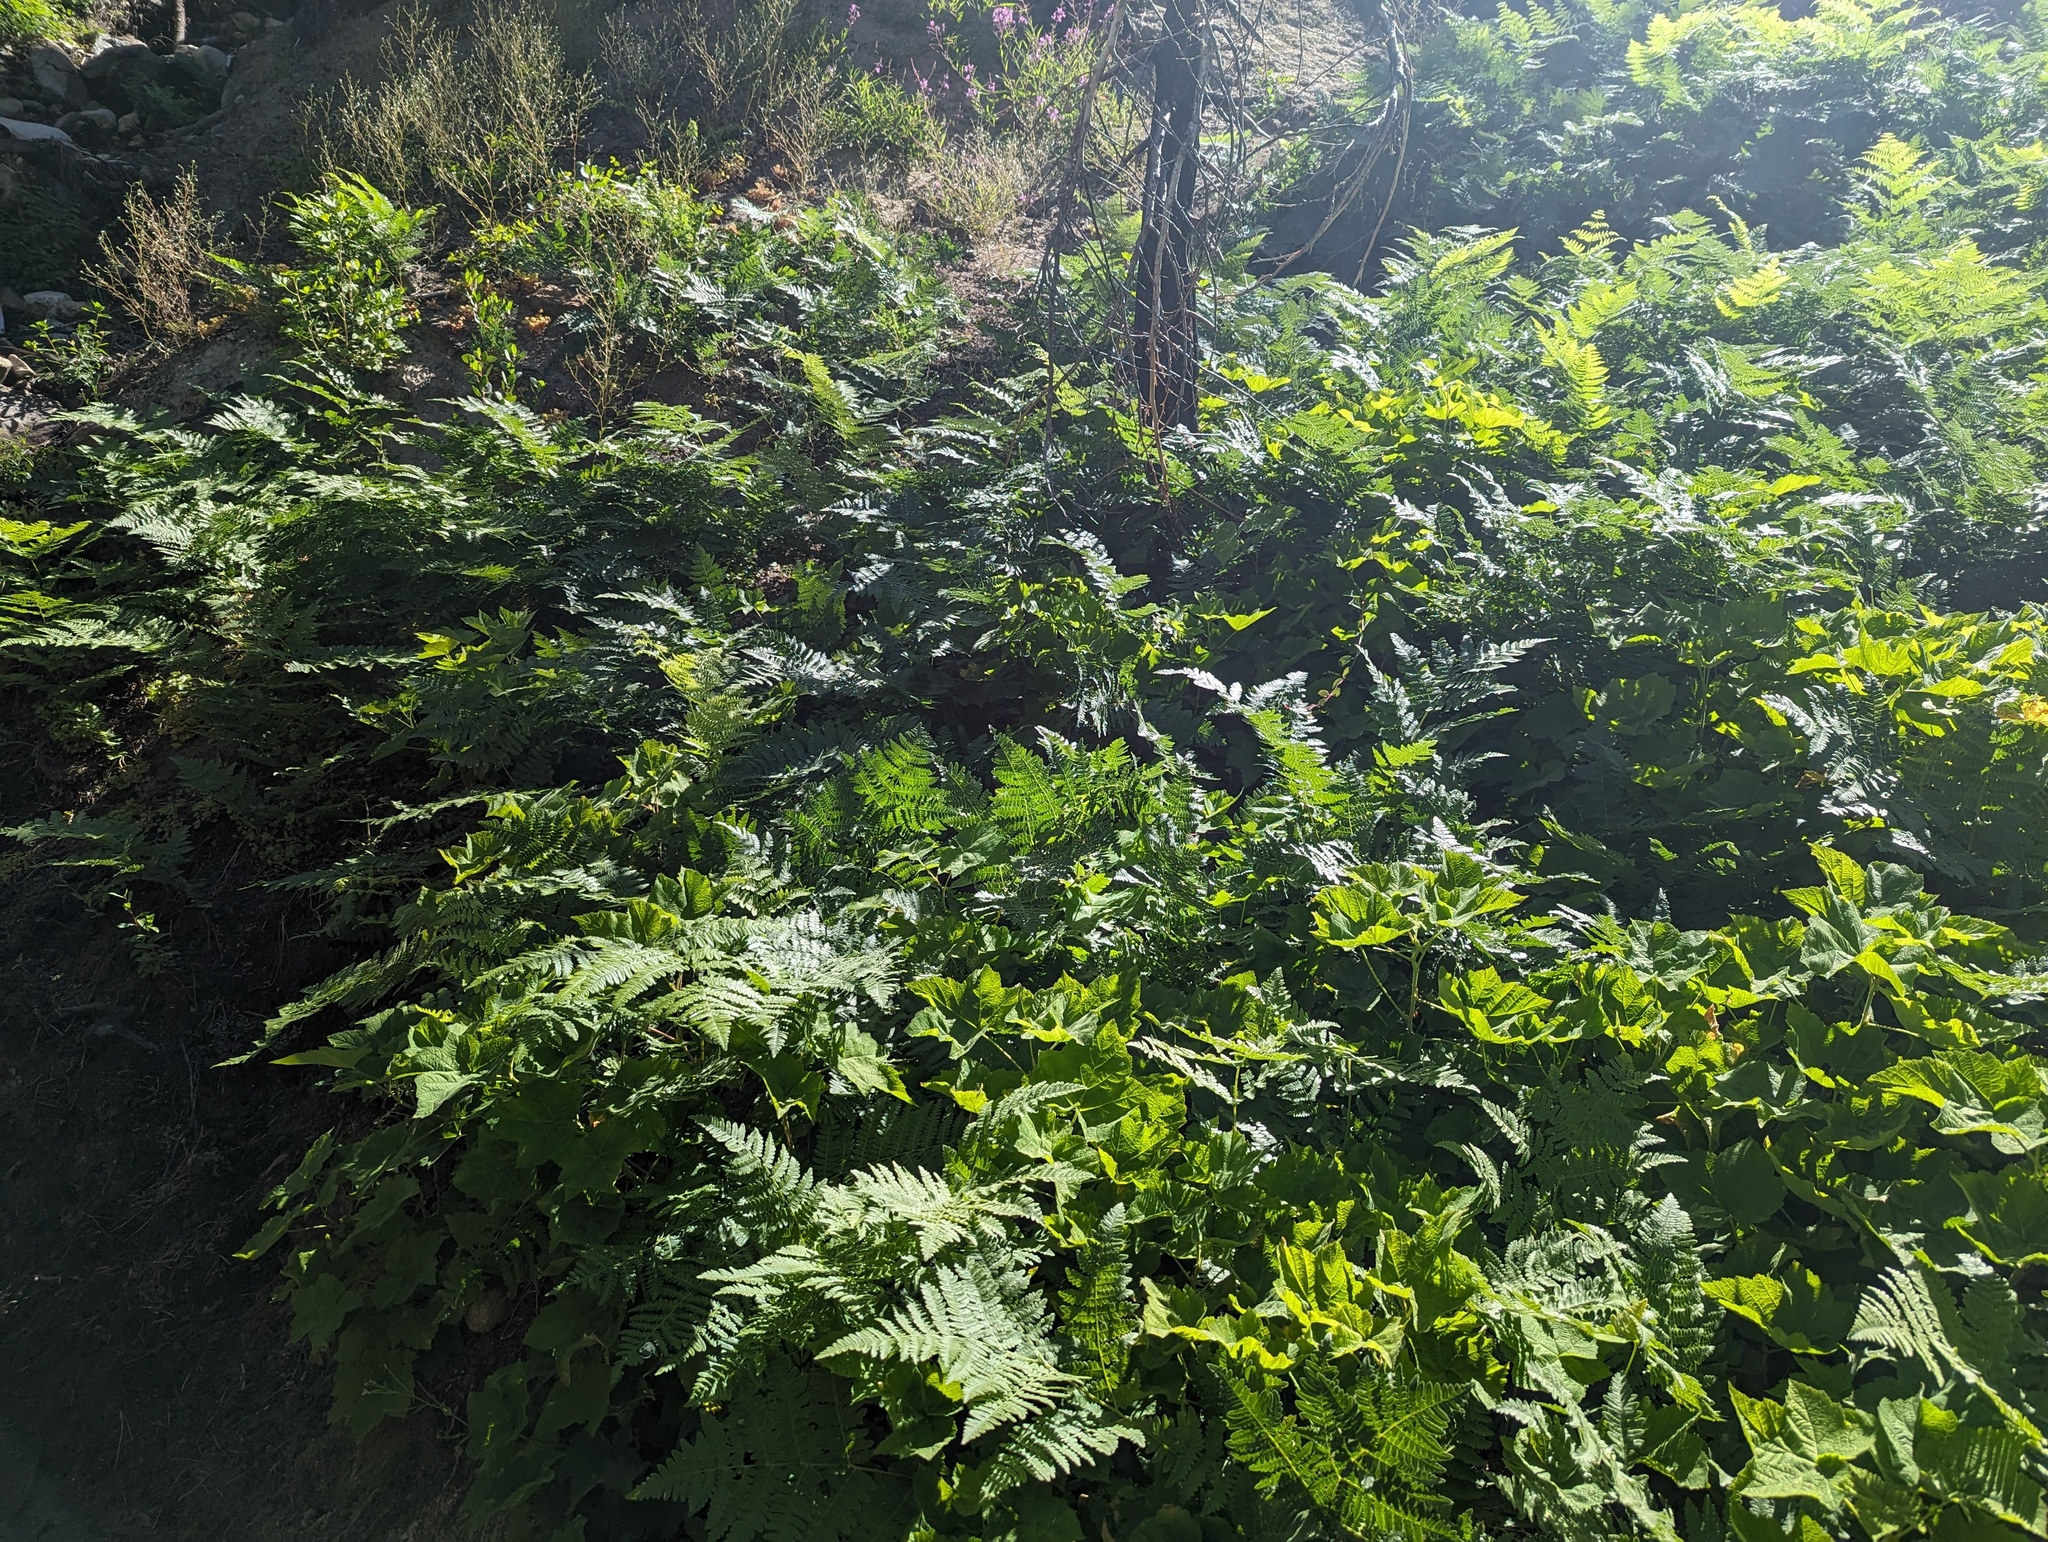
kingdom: Plantae
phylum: Tracheophyta
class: Polypodiopsida
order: Polypodiales
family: Dennstaedtiaceae
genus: Pteridium
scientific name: Pteridium aquilinum
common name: Bracken
